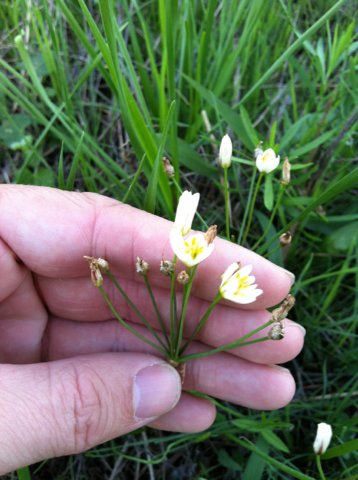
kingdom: Plantae
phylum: Tracheophyta
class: Liliopsida
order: Asparagales
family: Amaryllidaceae
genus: Nothoscordum
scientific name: Nothoscordum bivalve
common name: Crow-poison
